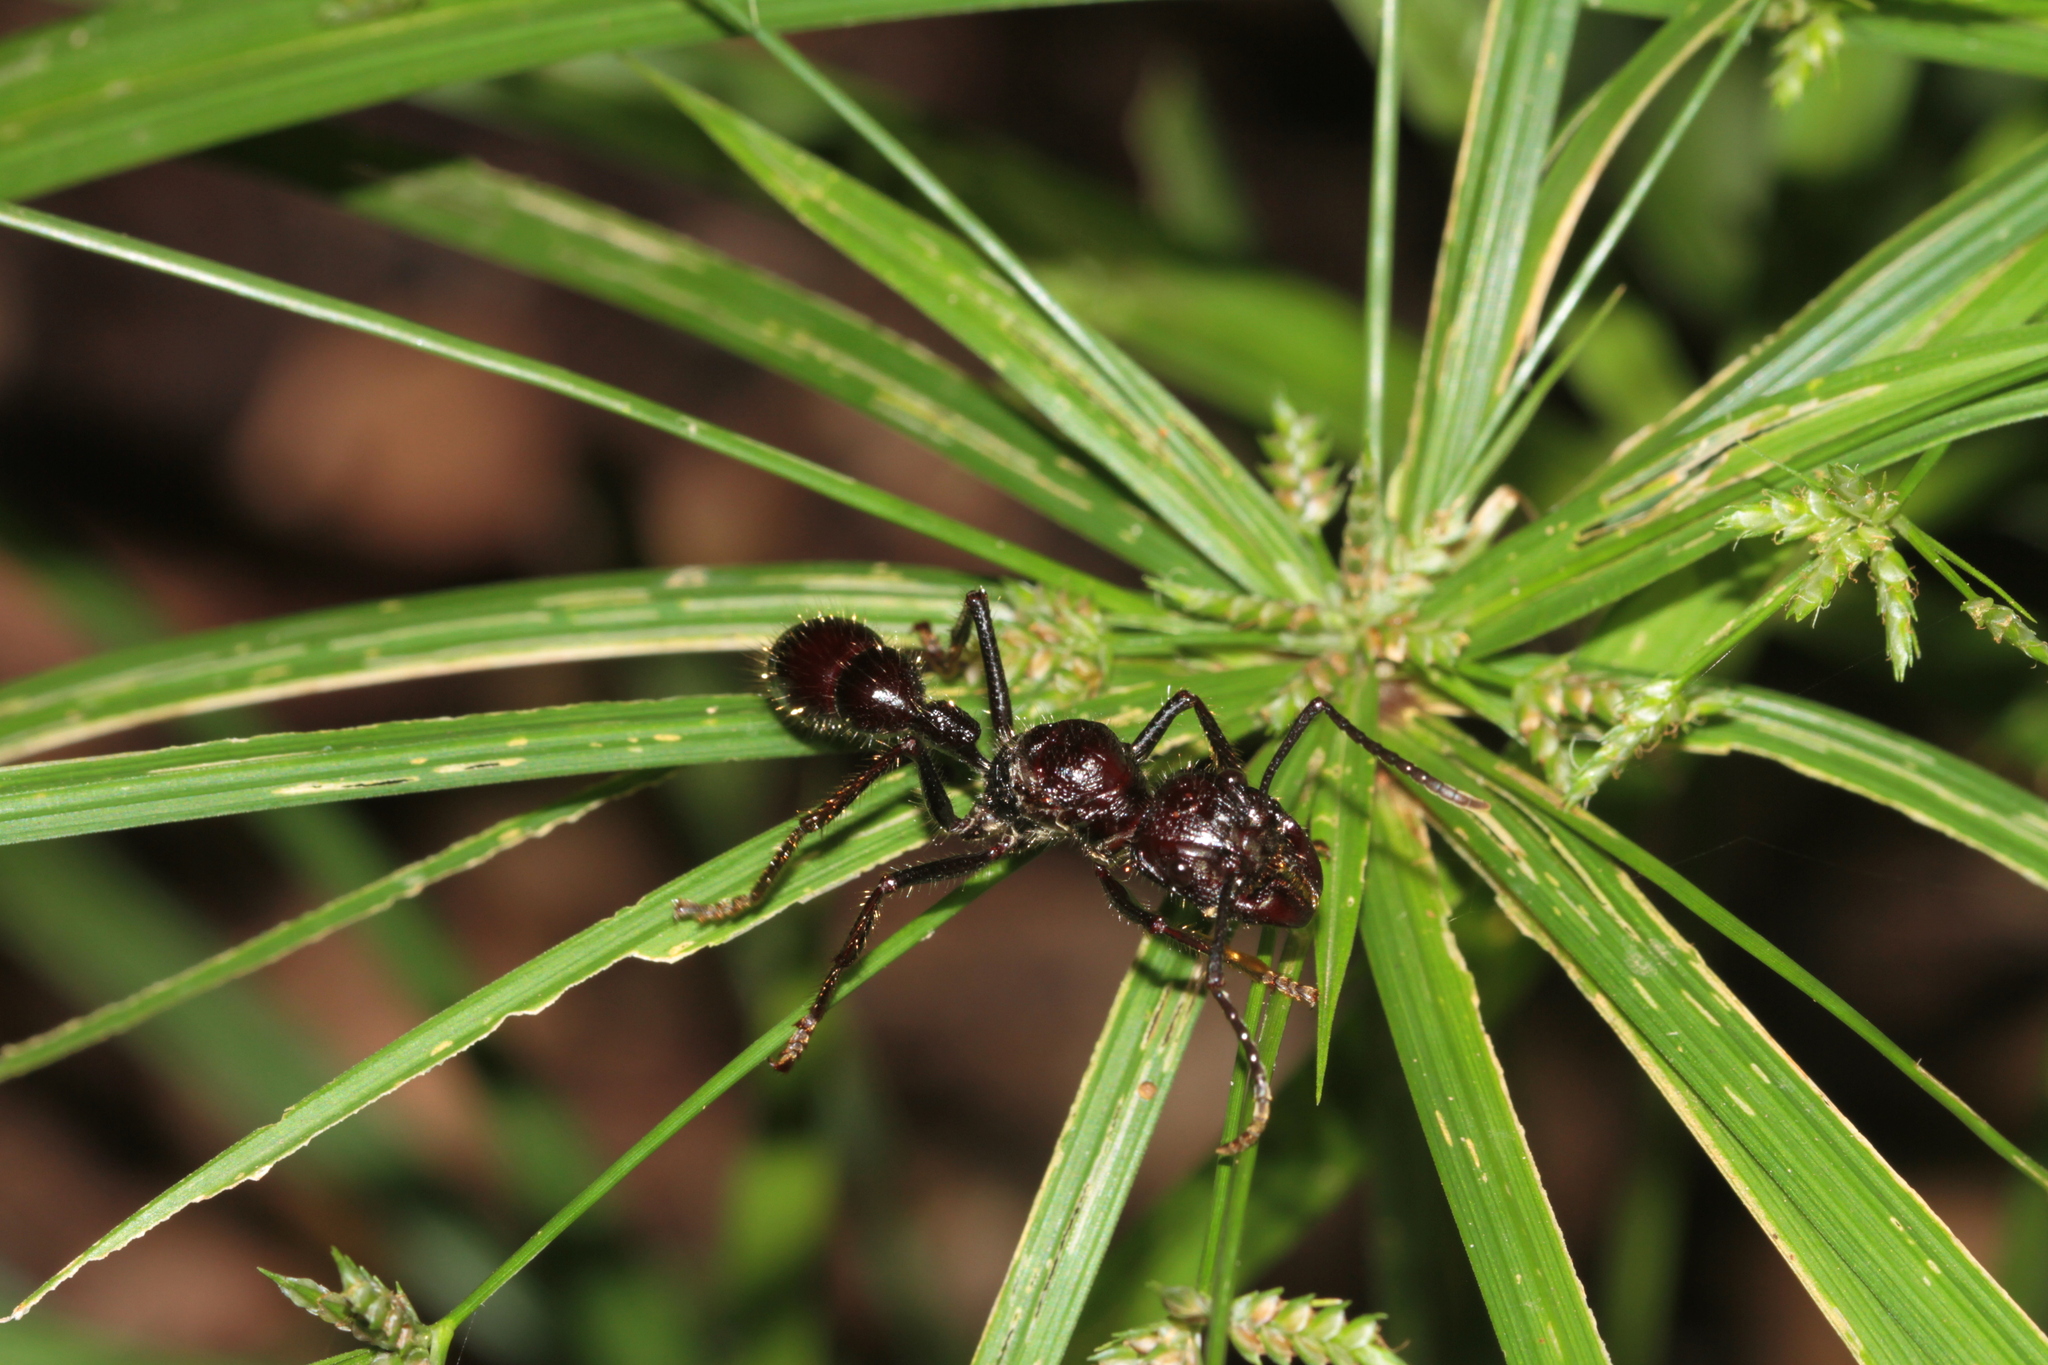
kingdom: Animalia
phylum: Arthropoda
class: Insecta
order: Hymenoptera
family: Formicidae
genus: Paraponera
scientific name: Paraponera clavata
